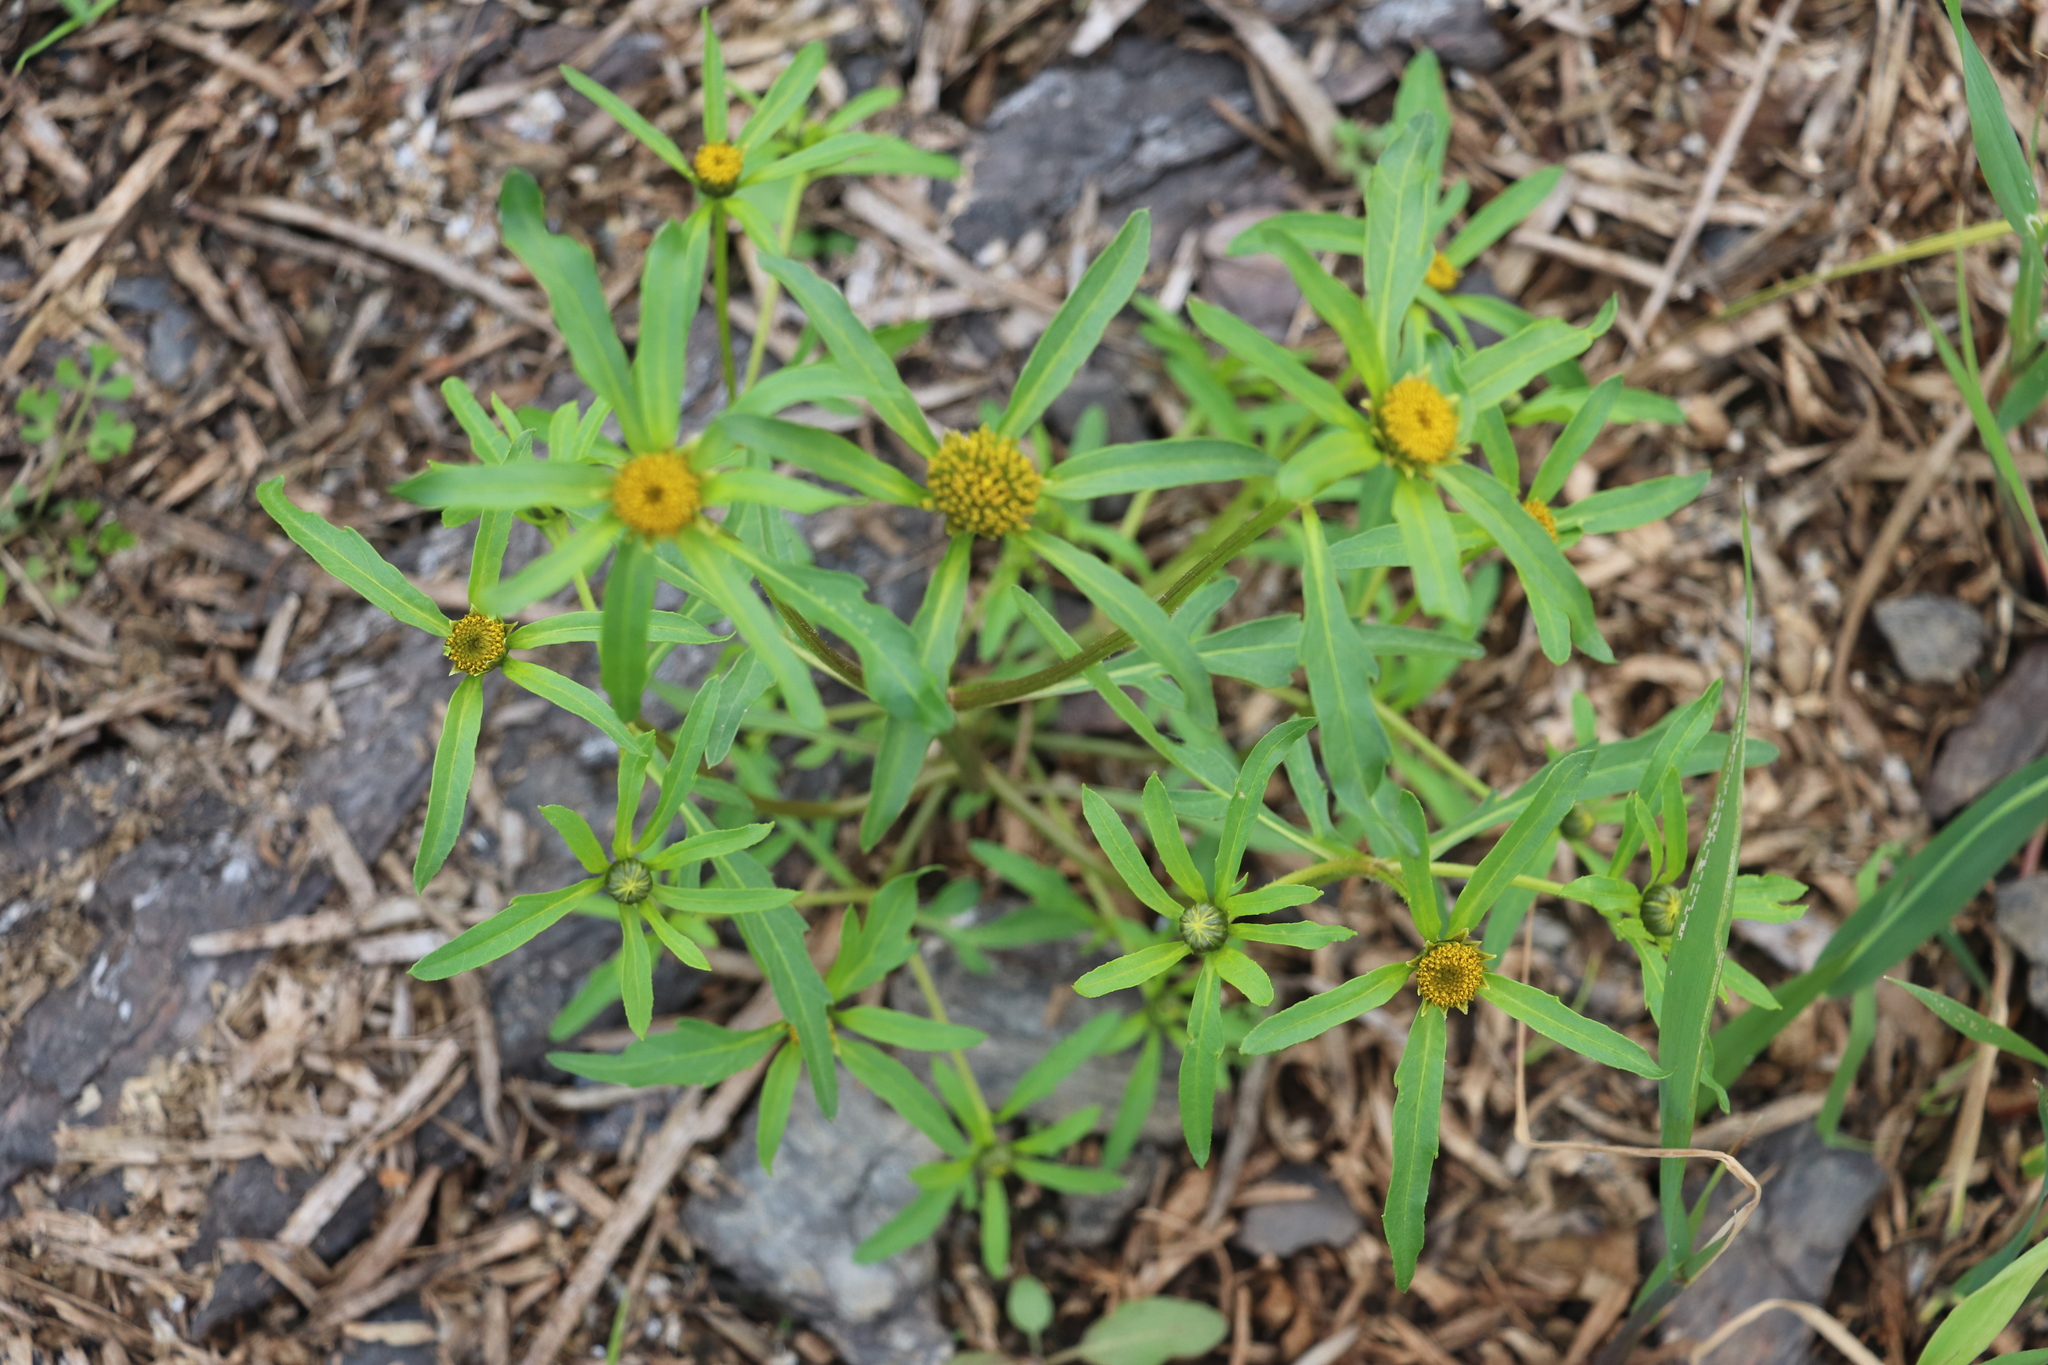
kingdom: Plantae
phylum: Tracheophyta
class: Magnoliopsida
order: Asterales
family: Asteraceae
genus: Bidens
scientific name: Bidens radiata
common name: Radiating bur-marigold
